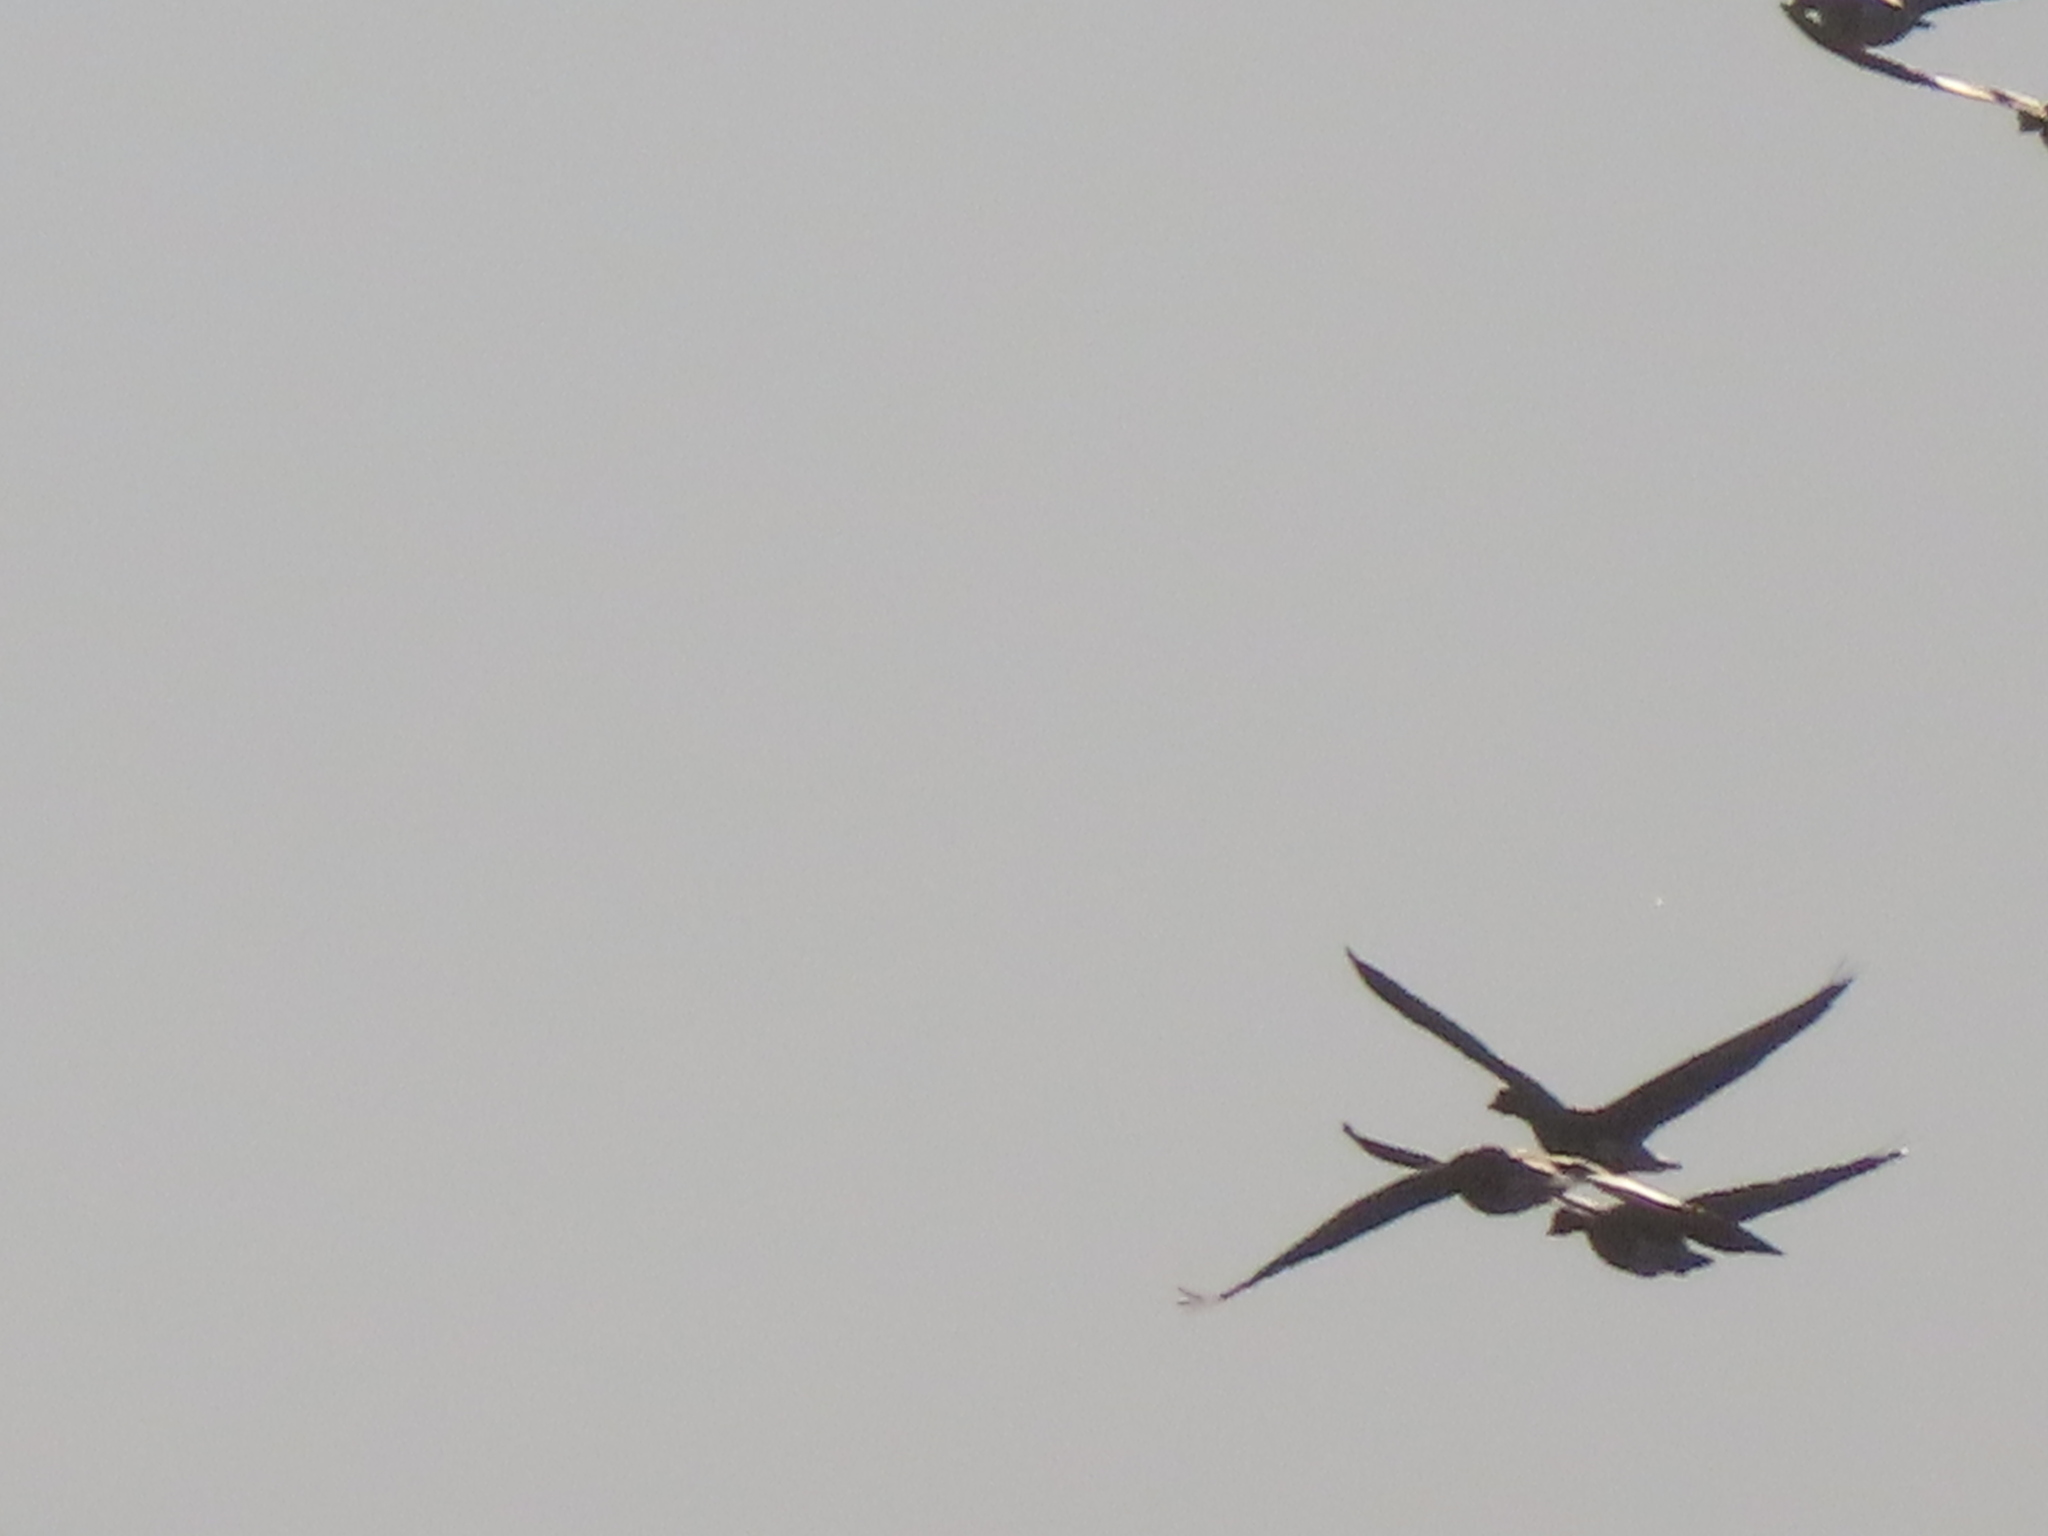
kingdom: Animalia
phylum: Chordata
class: Aves
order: Anseriformes
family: Anatidae
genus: Anser
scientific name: Anser caerulescens
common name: Snow goose
